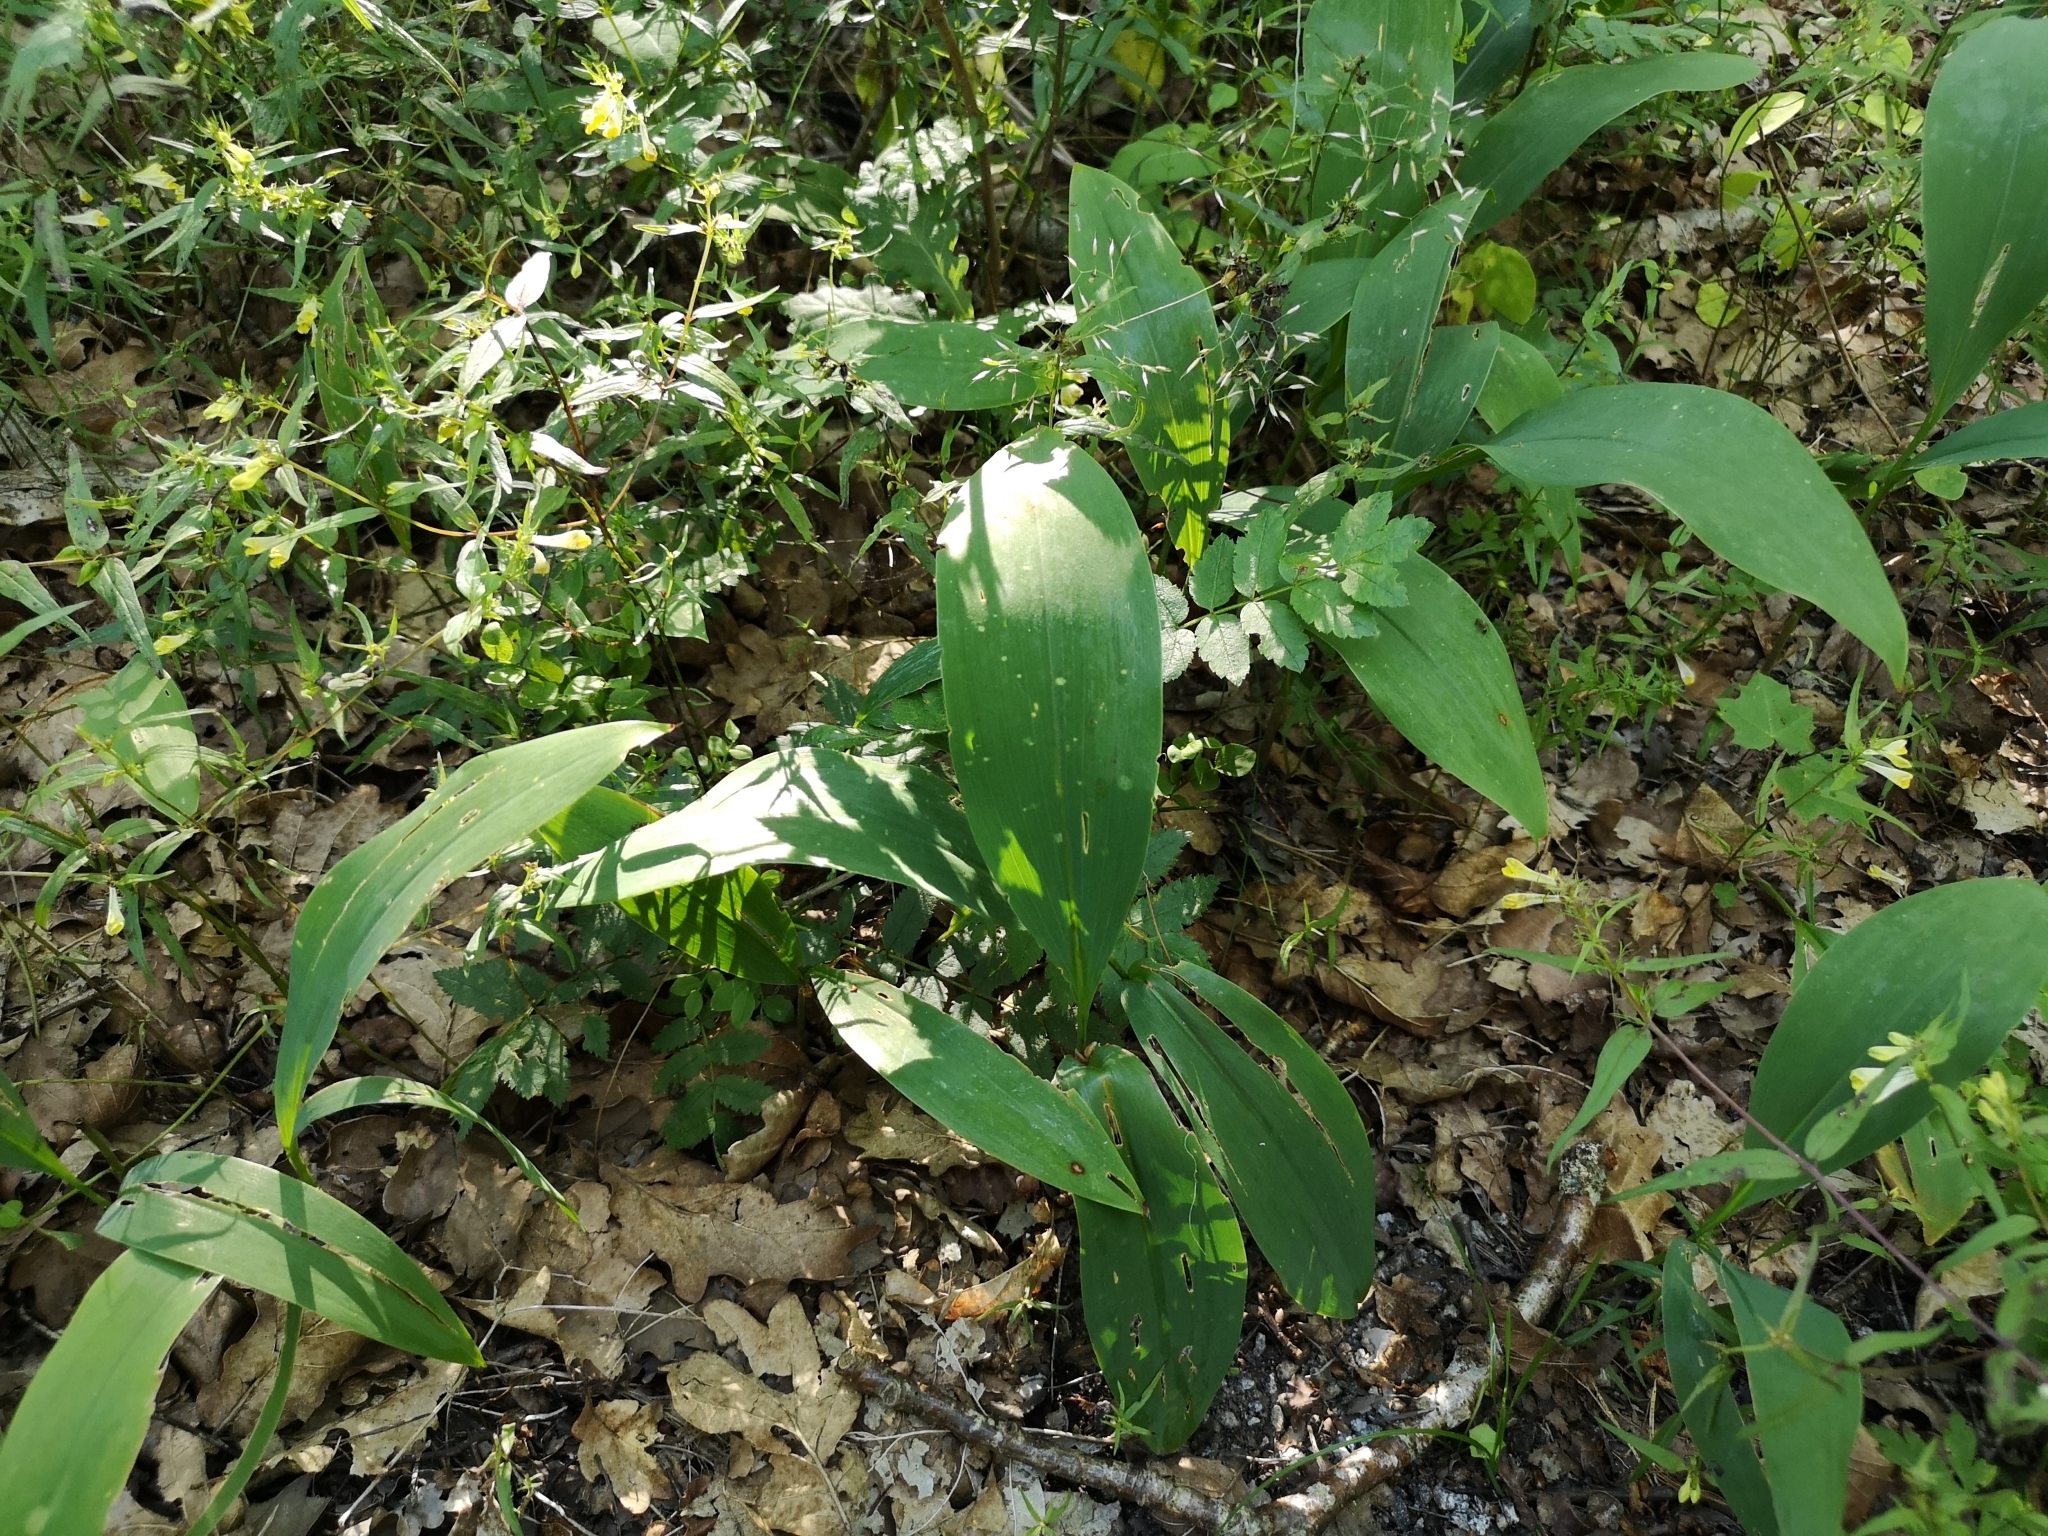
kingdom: Plantae
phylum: Tracheophyta
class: Liliopsida
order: Asparagales
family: Asparagaceae
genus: Convallaria
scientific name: Convallaria majalis
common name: Lily-of-the-valley
